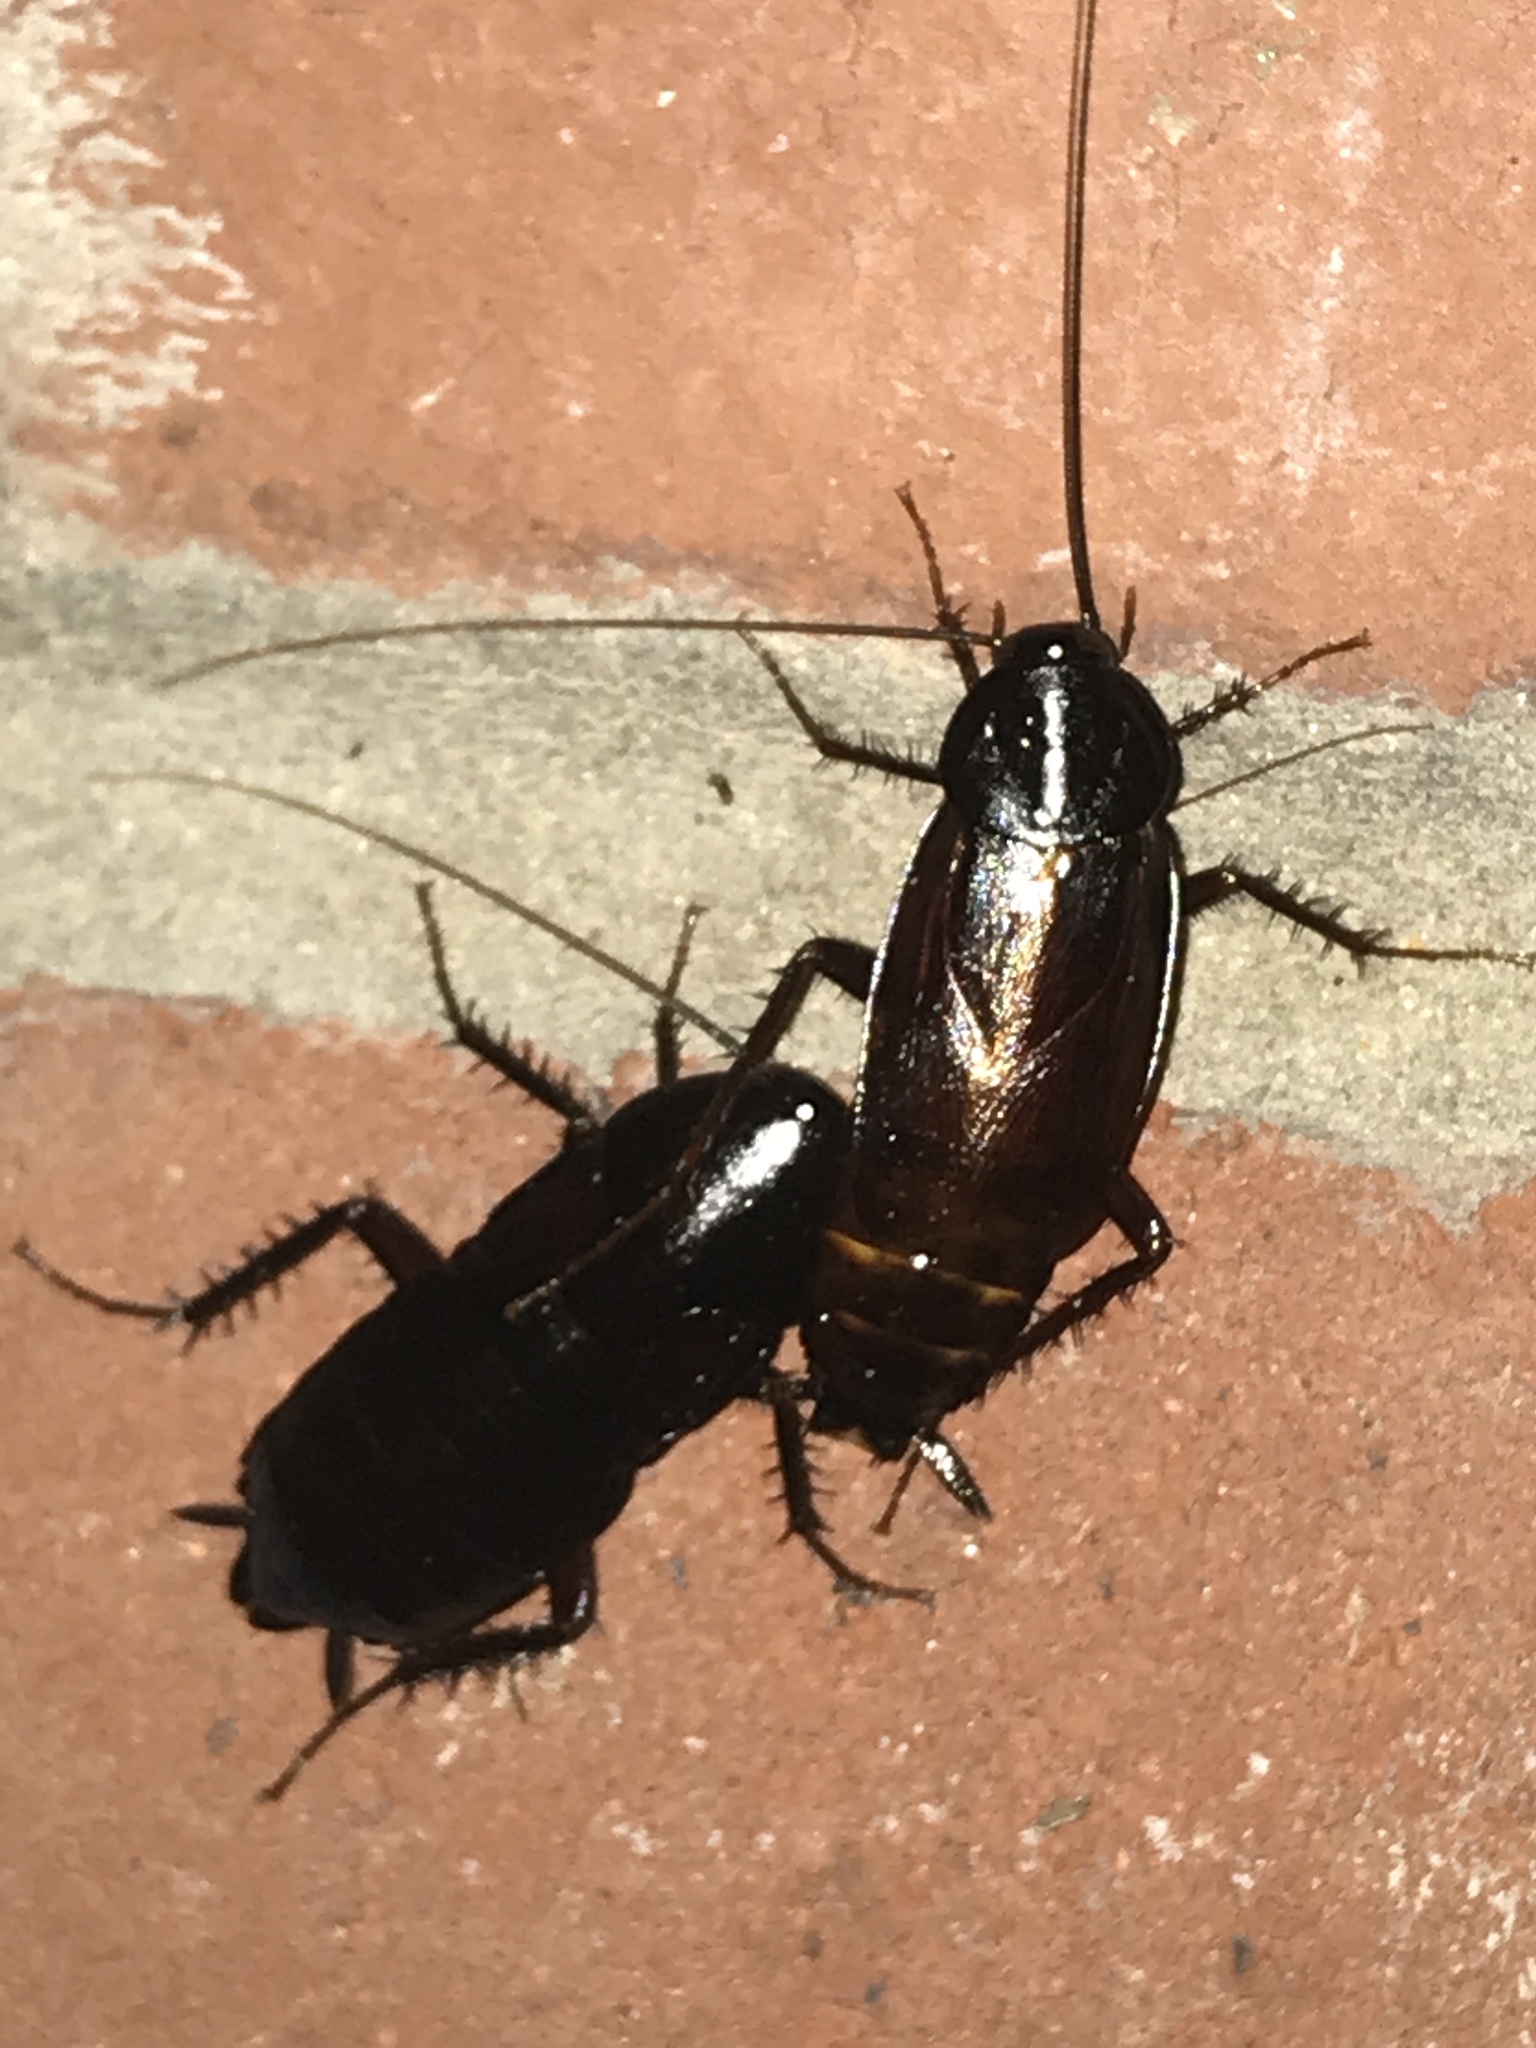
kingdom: Animalia
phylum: Arthropoda
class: Insecta
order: Blattodea
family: Blattidae
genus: Blatta
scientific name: Blatta orientalis
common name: Oriental cockroach
